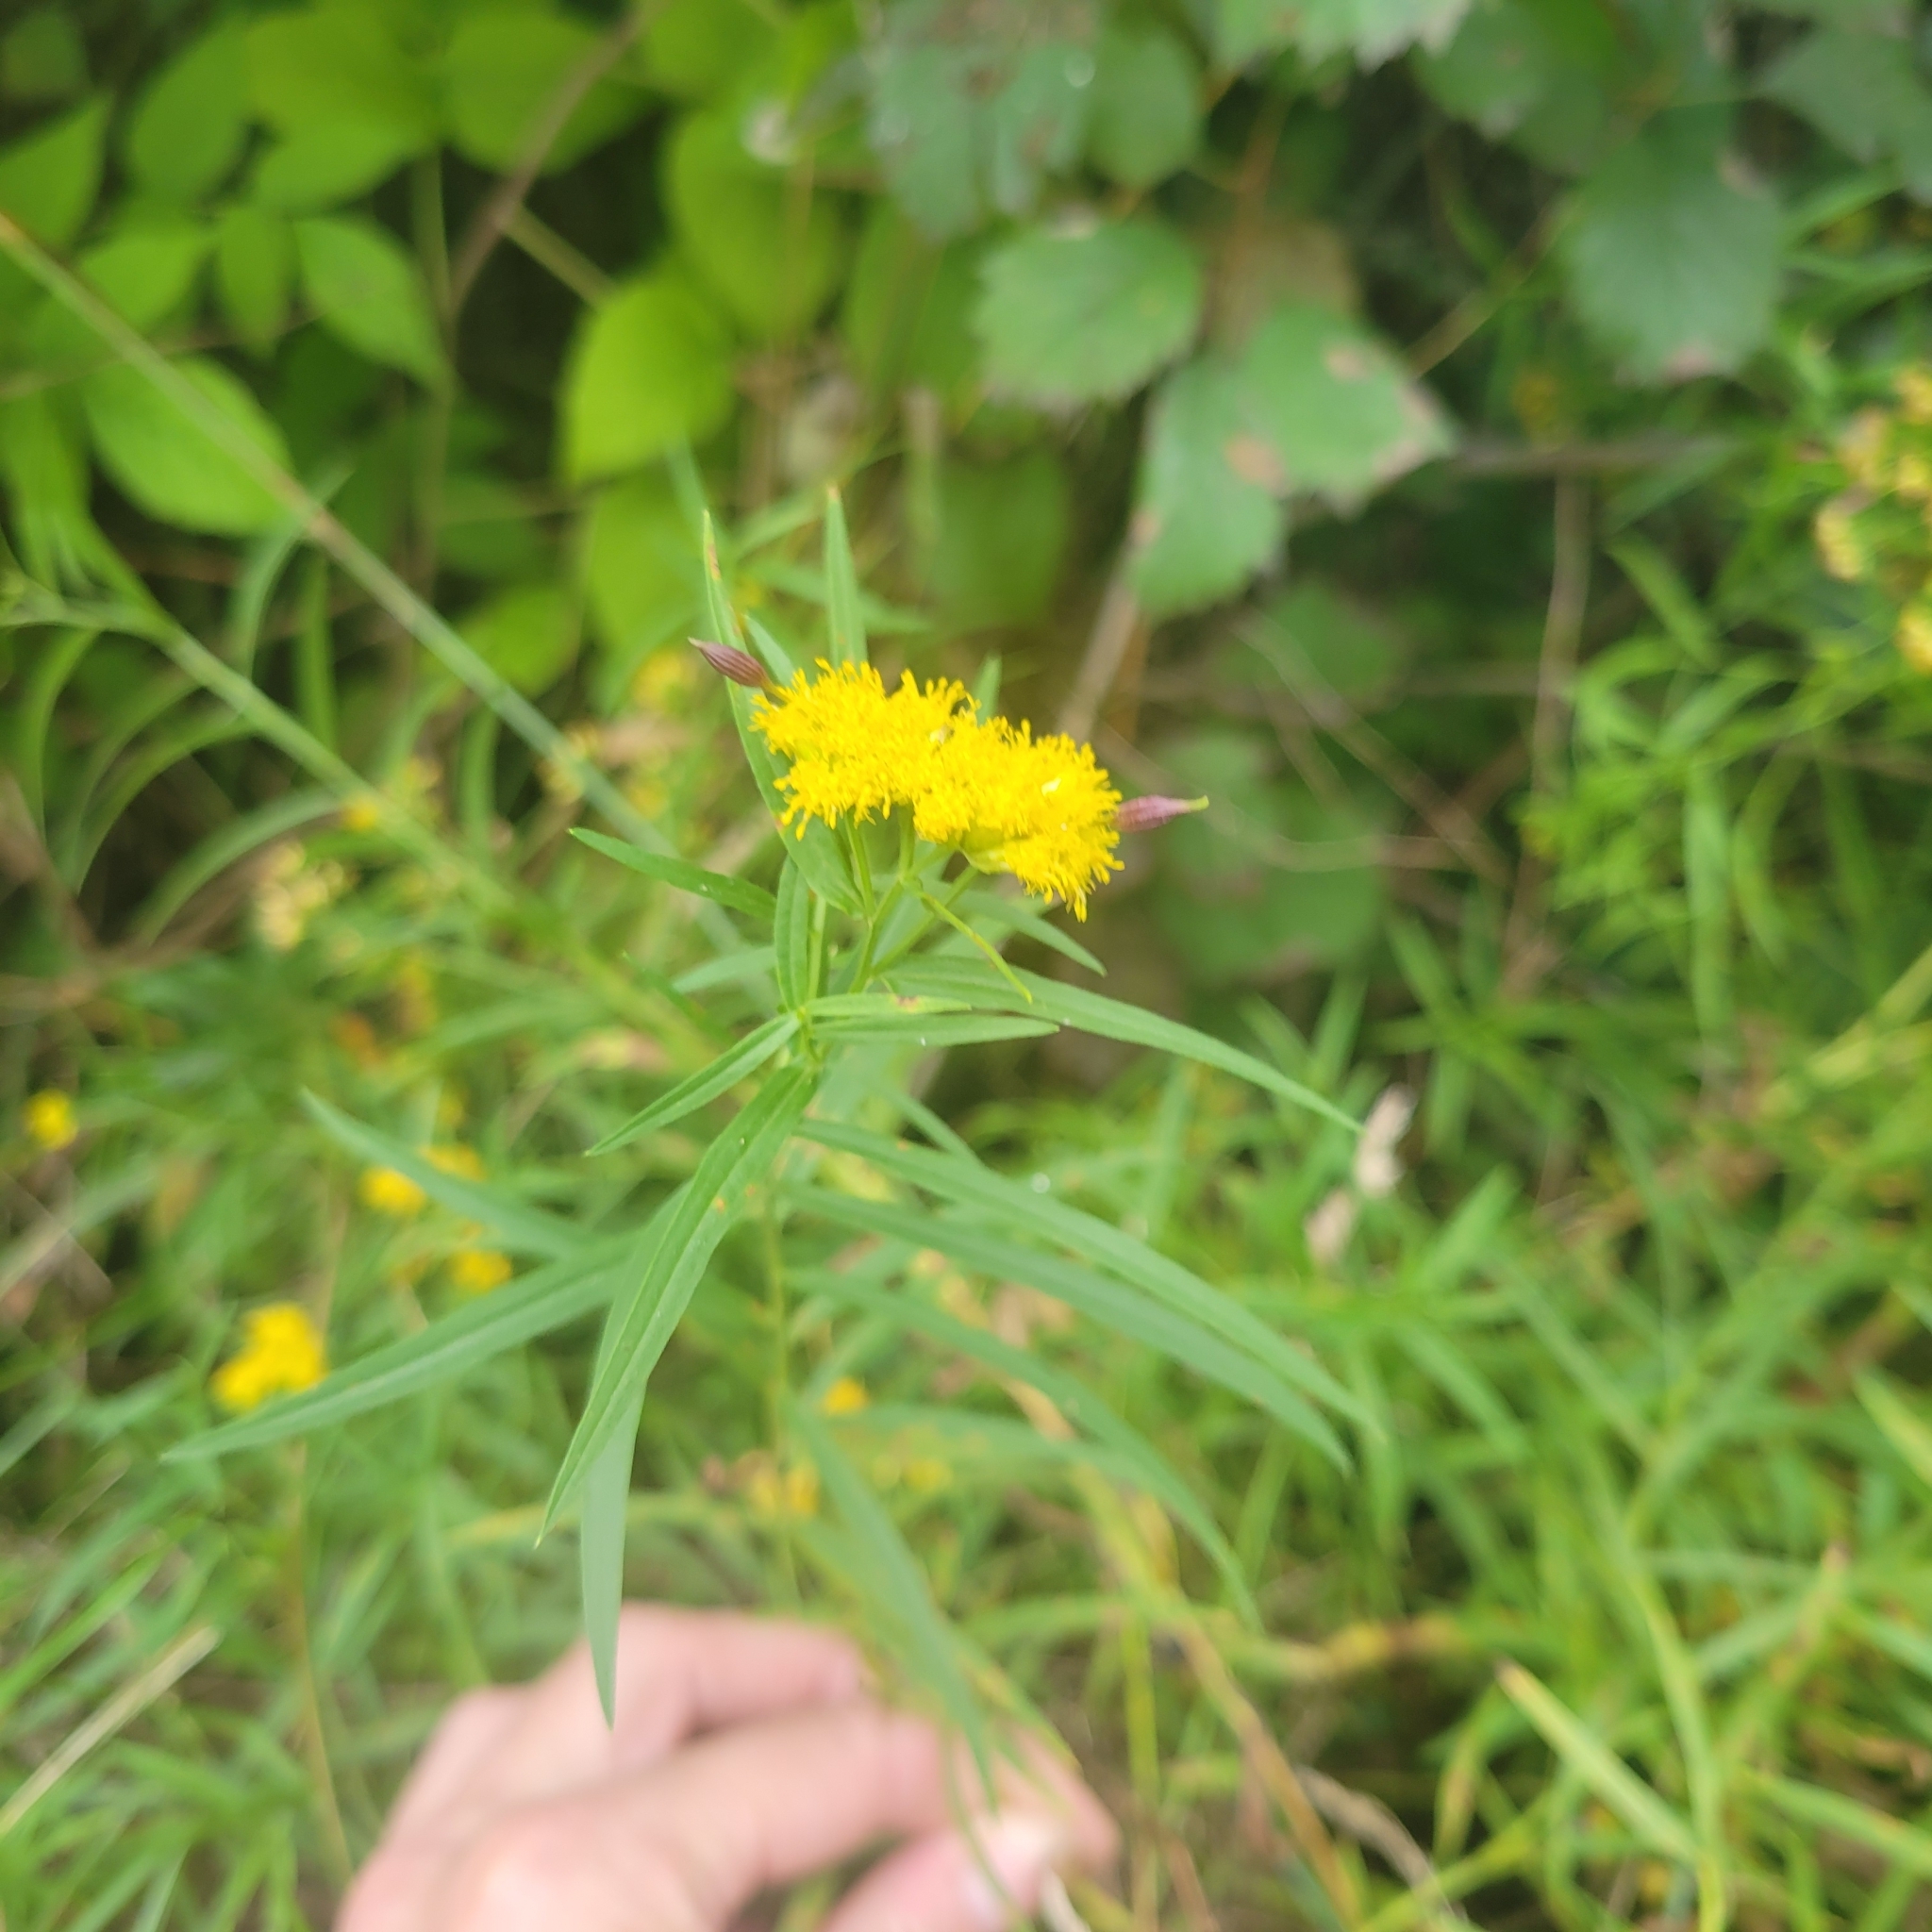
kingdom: Plantae
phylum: Tracheophyta
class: Magnoliopsida
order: Asterales
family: Asteraceae
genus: Euthamia
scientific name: Euthamia graminifolia
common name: Common goldentop
